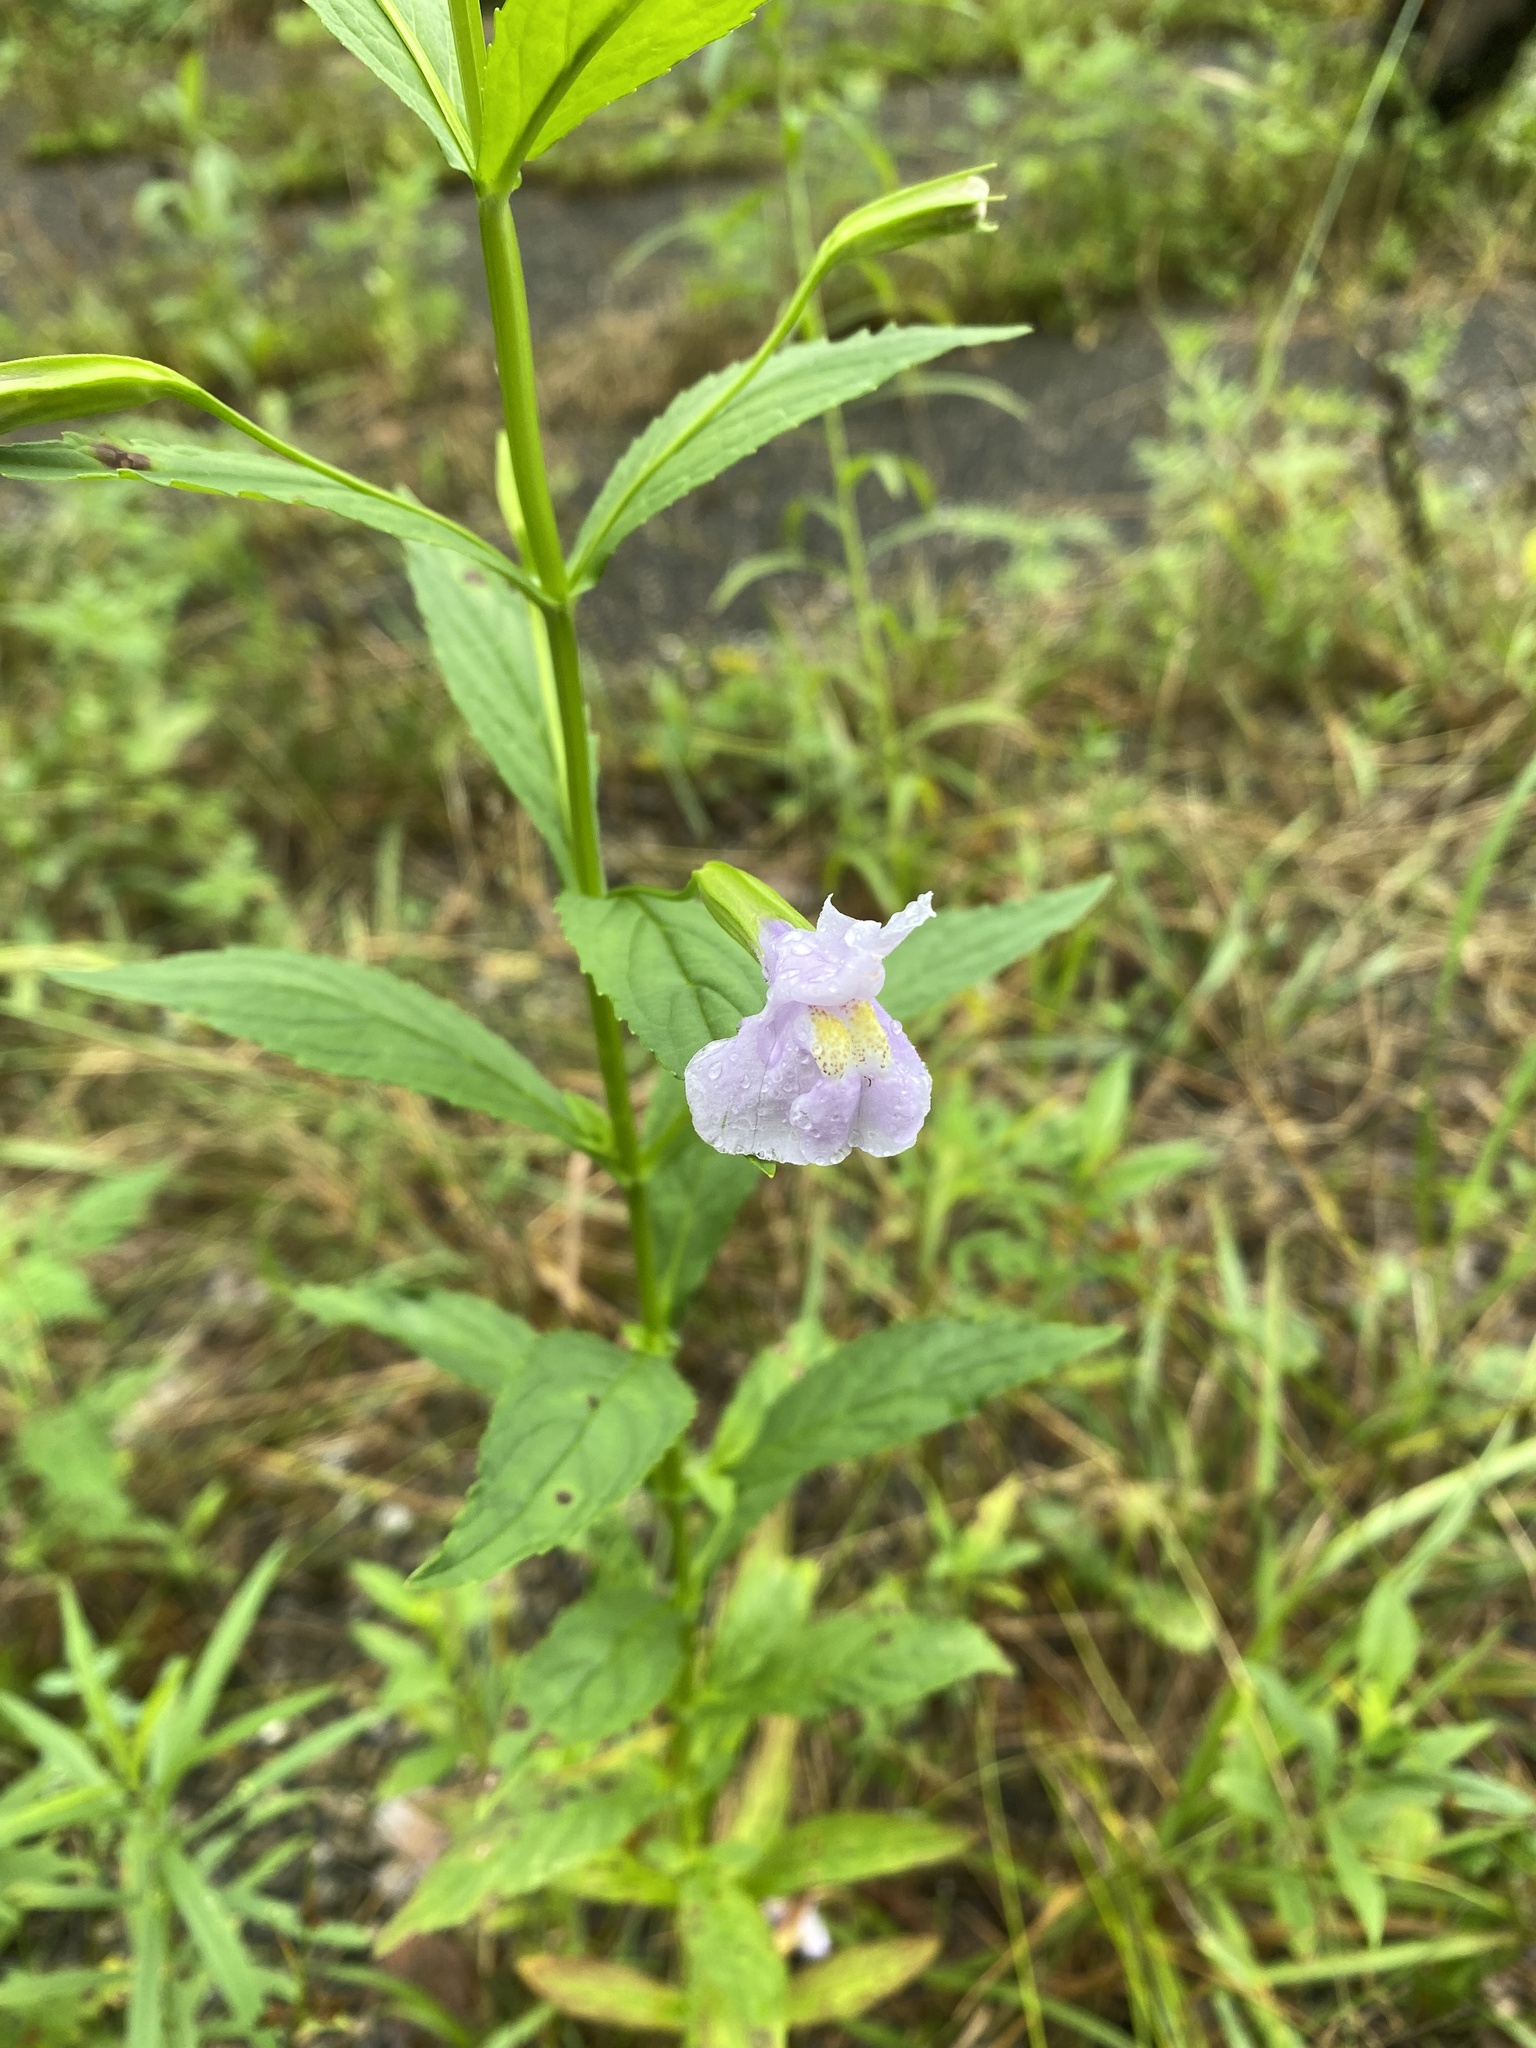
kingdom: Plantae
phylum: Tracheophyta
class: Magnoliopsida
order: Lamiales
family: Phrymaceae
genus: Mimulus
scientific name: Mimulus ringens
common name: Allegheny monkeyflower
